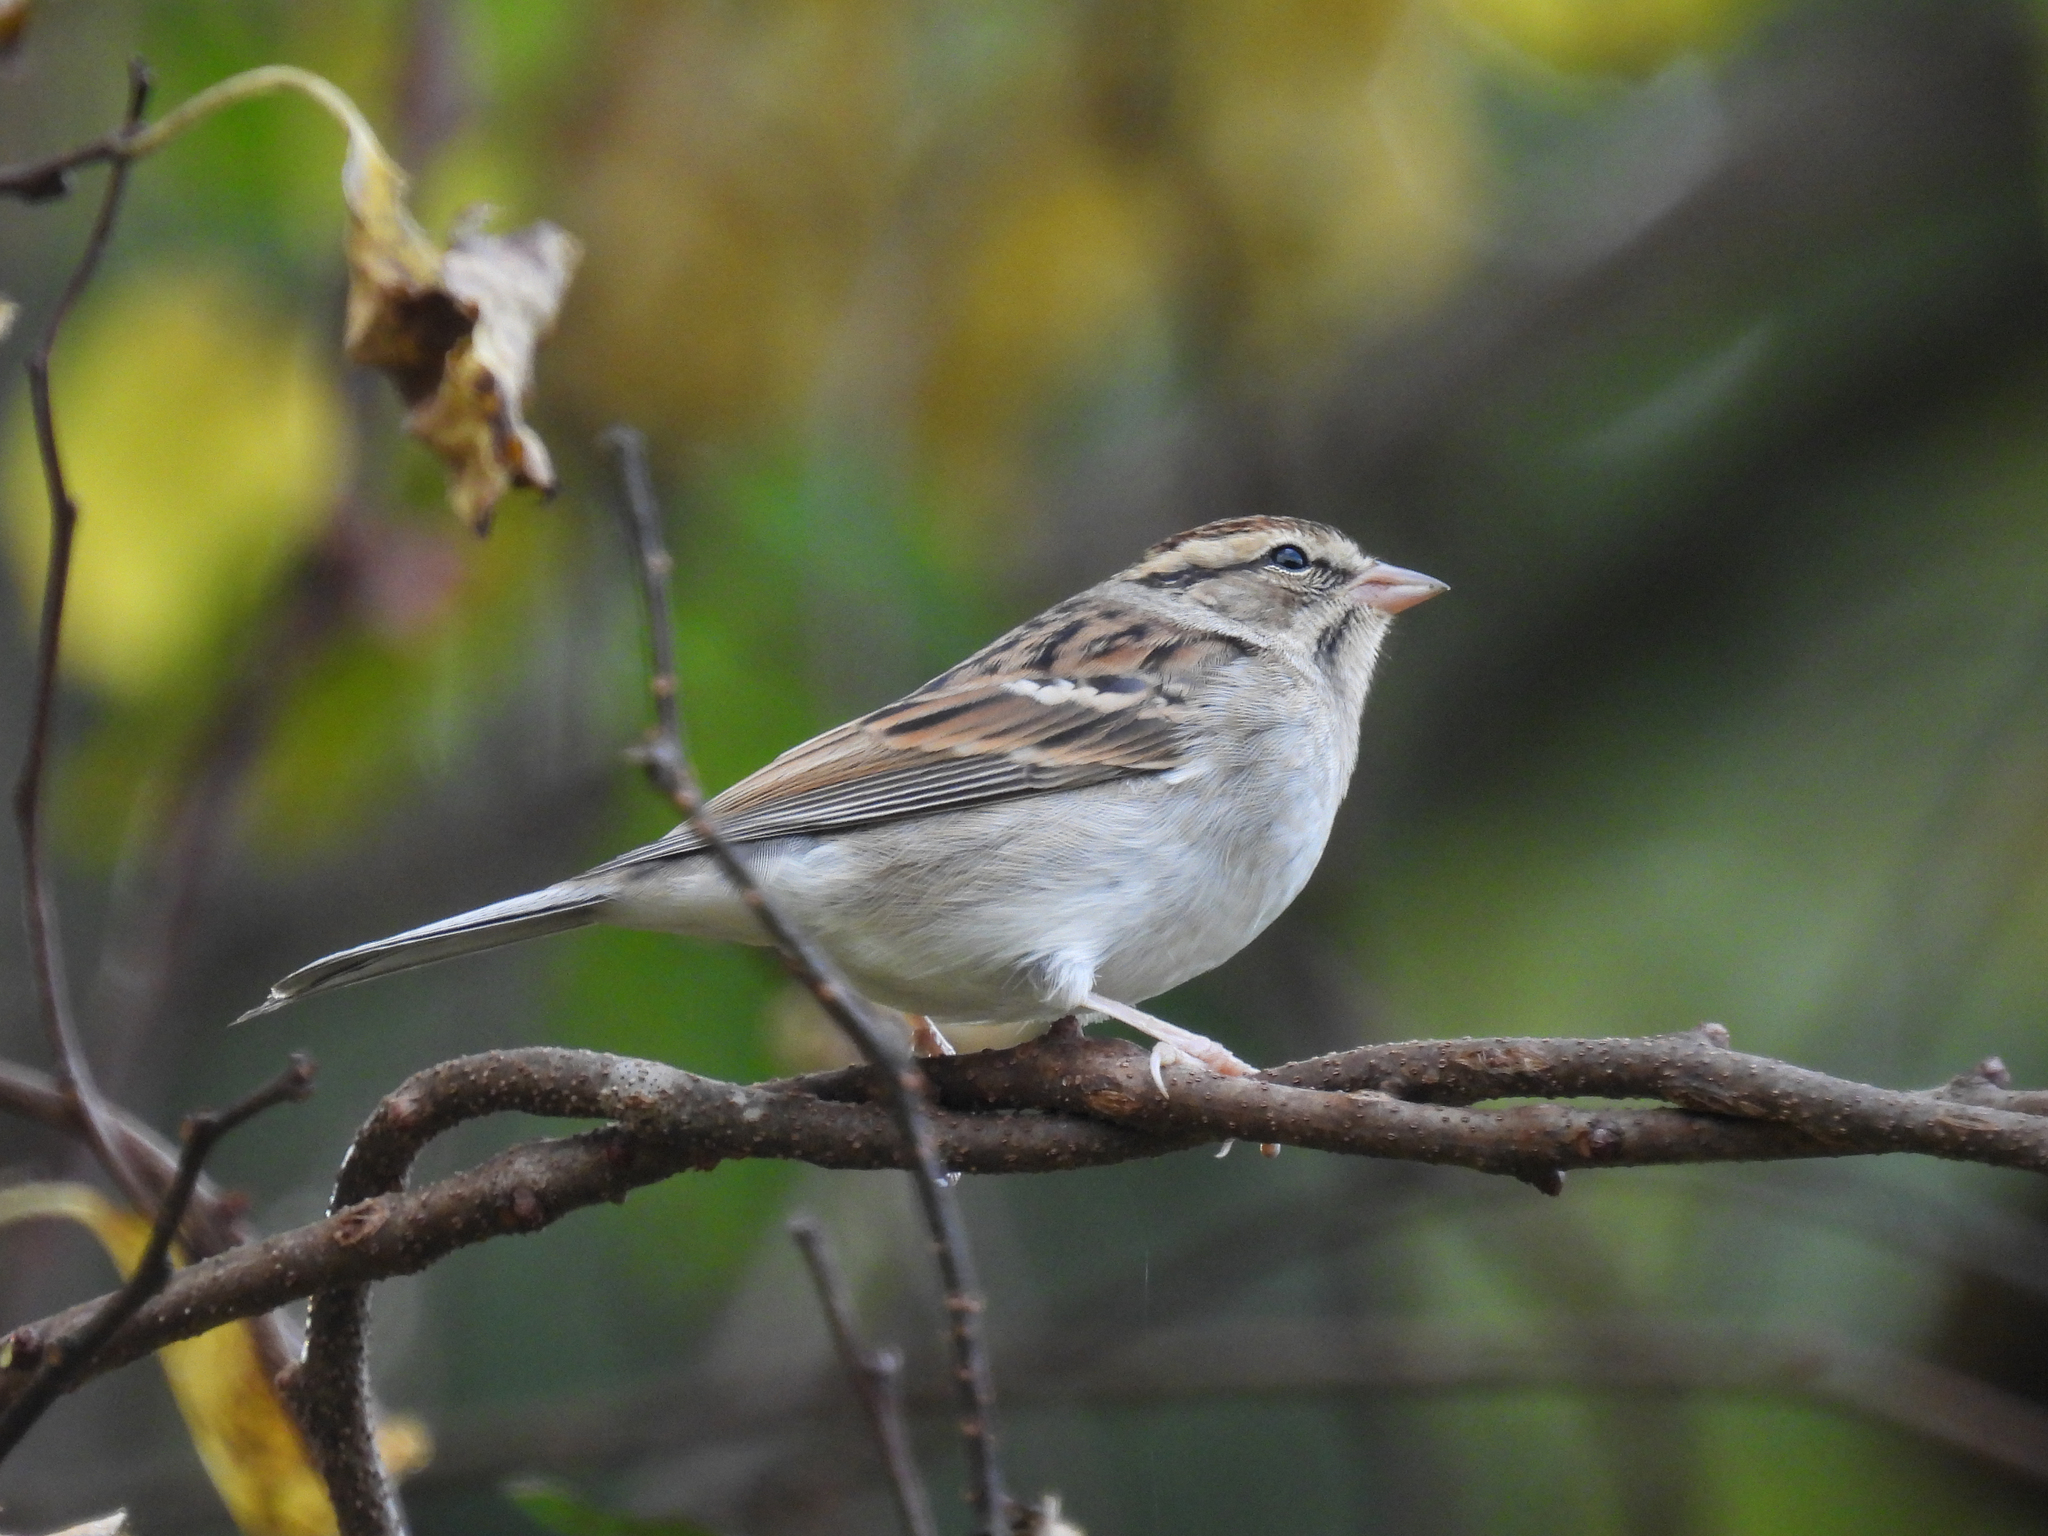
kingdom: Animalia
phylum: Chordata
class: Aves
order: Passeriformes
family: Passerellidae
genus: Spizella
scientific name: Spizella passerina
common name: Chipping sparrow
